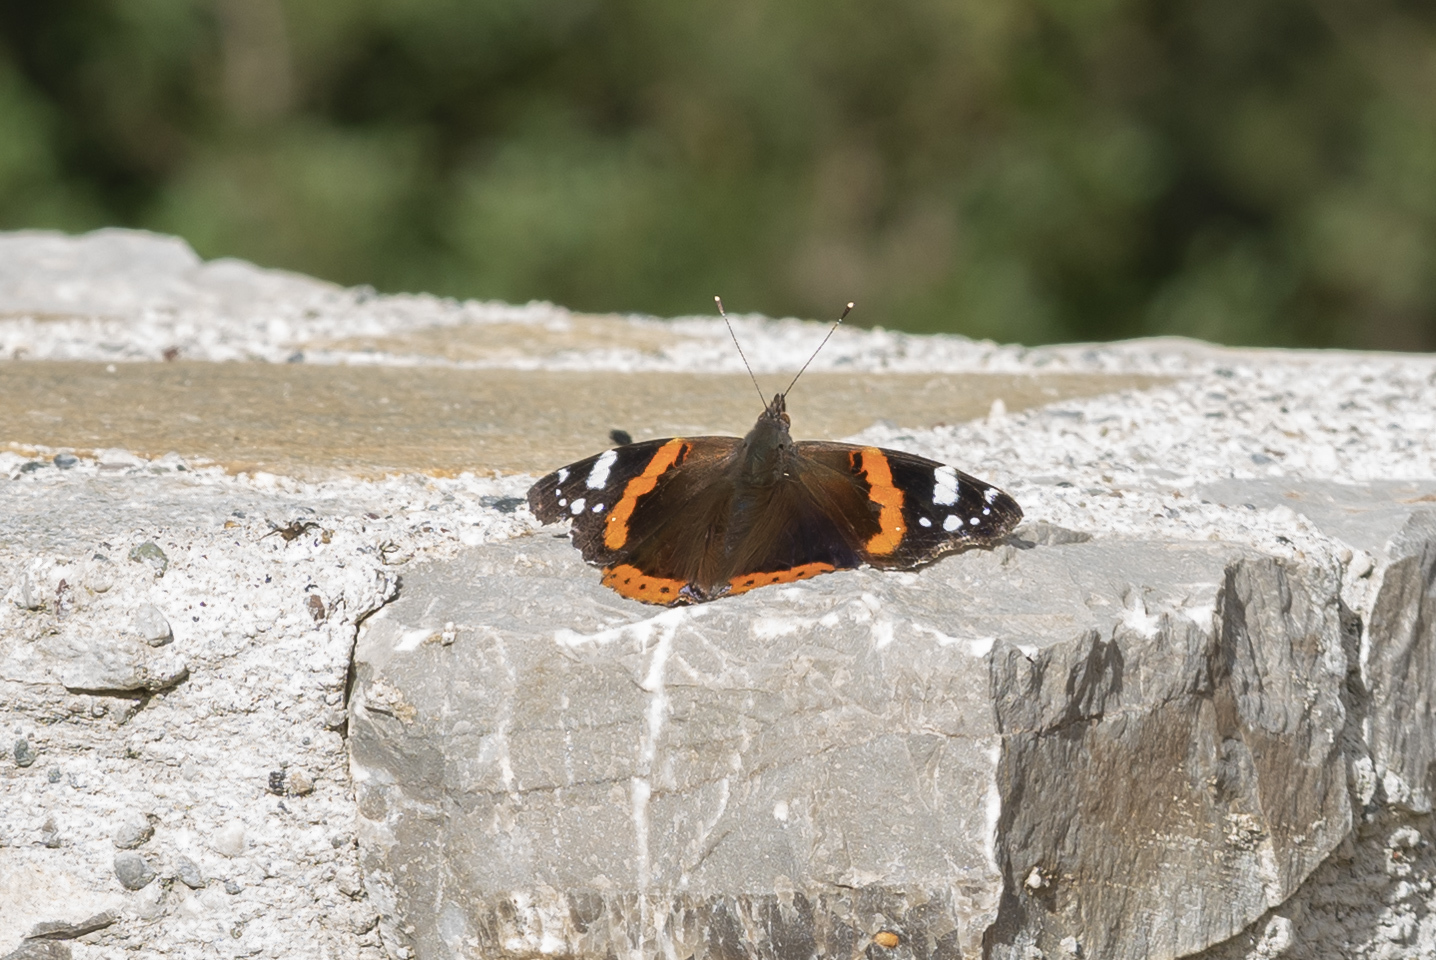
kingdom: Animalia
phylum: Arthropoda
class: Insecta
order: Lepidoptera
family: Nymphalidae
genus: Vanessa
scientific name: Vanessa atalanta
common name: Red admiral
